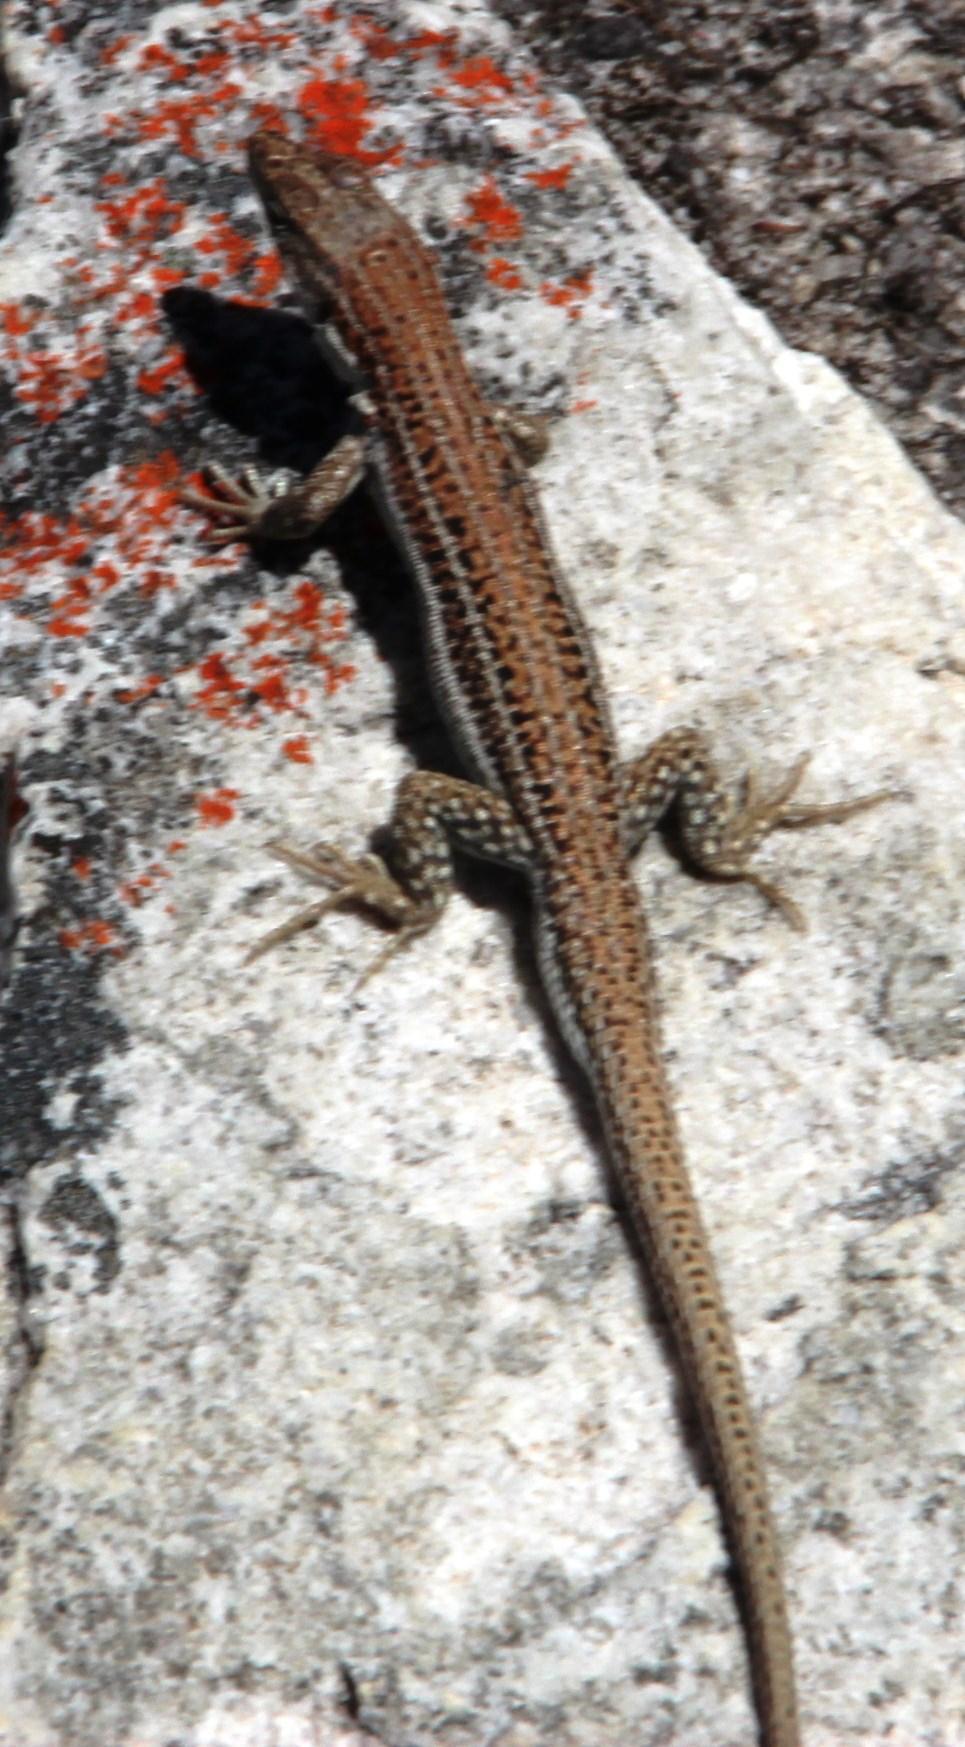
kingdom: Animalia
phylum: Chordata
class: Squamata
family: Lacertidae
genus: Pedioplanis
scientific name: Pedioplanis burchelli
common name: Burchell's sand lizard
